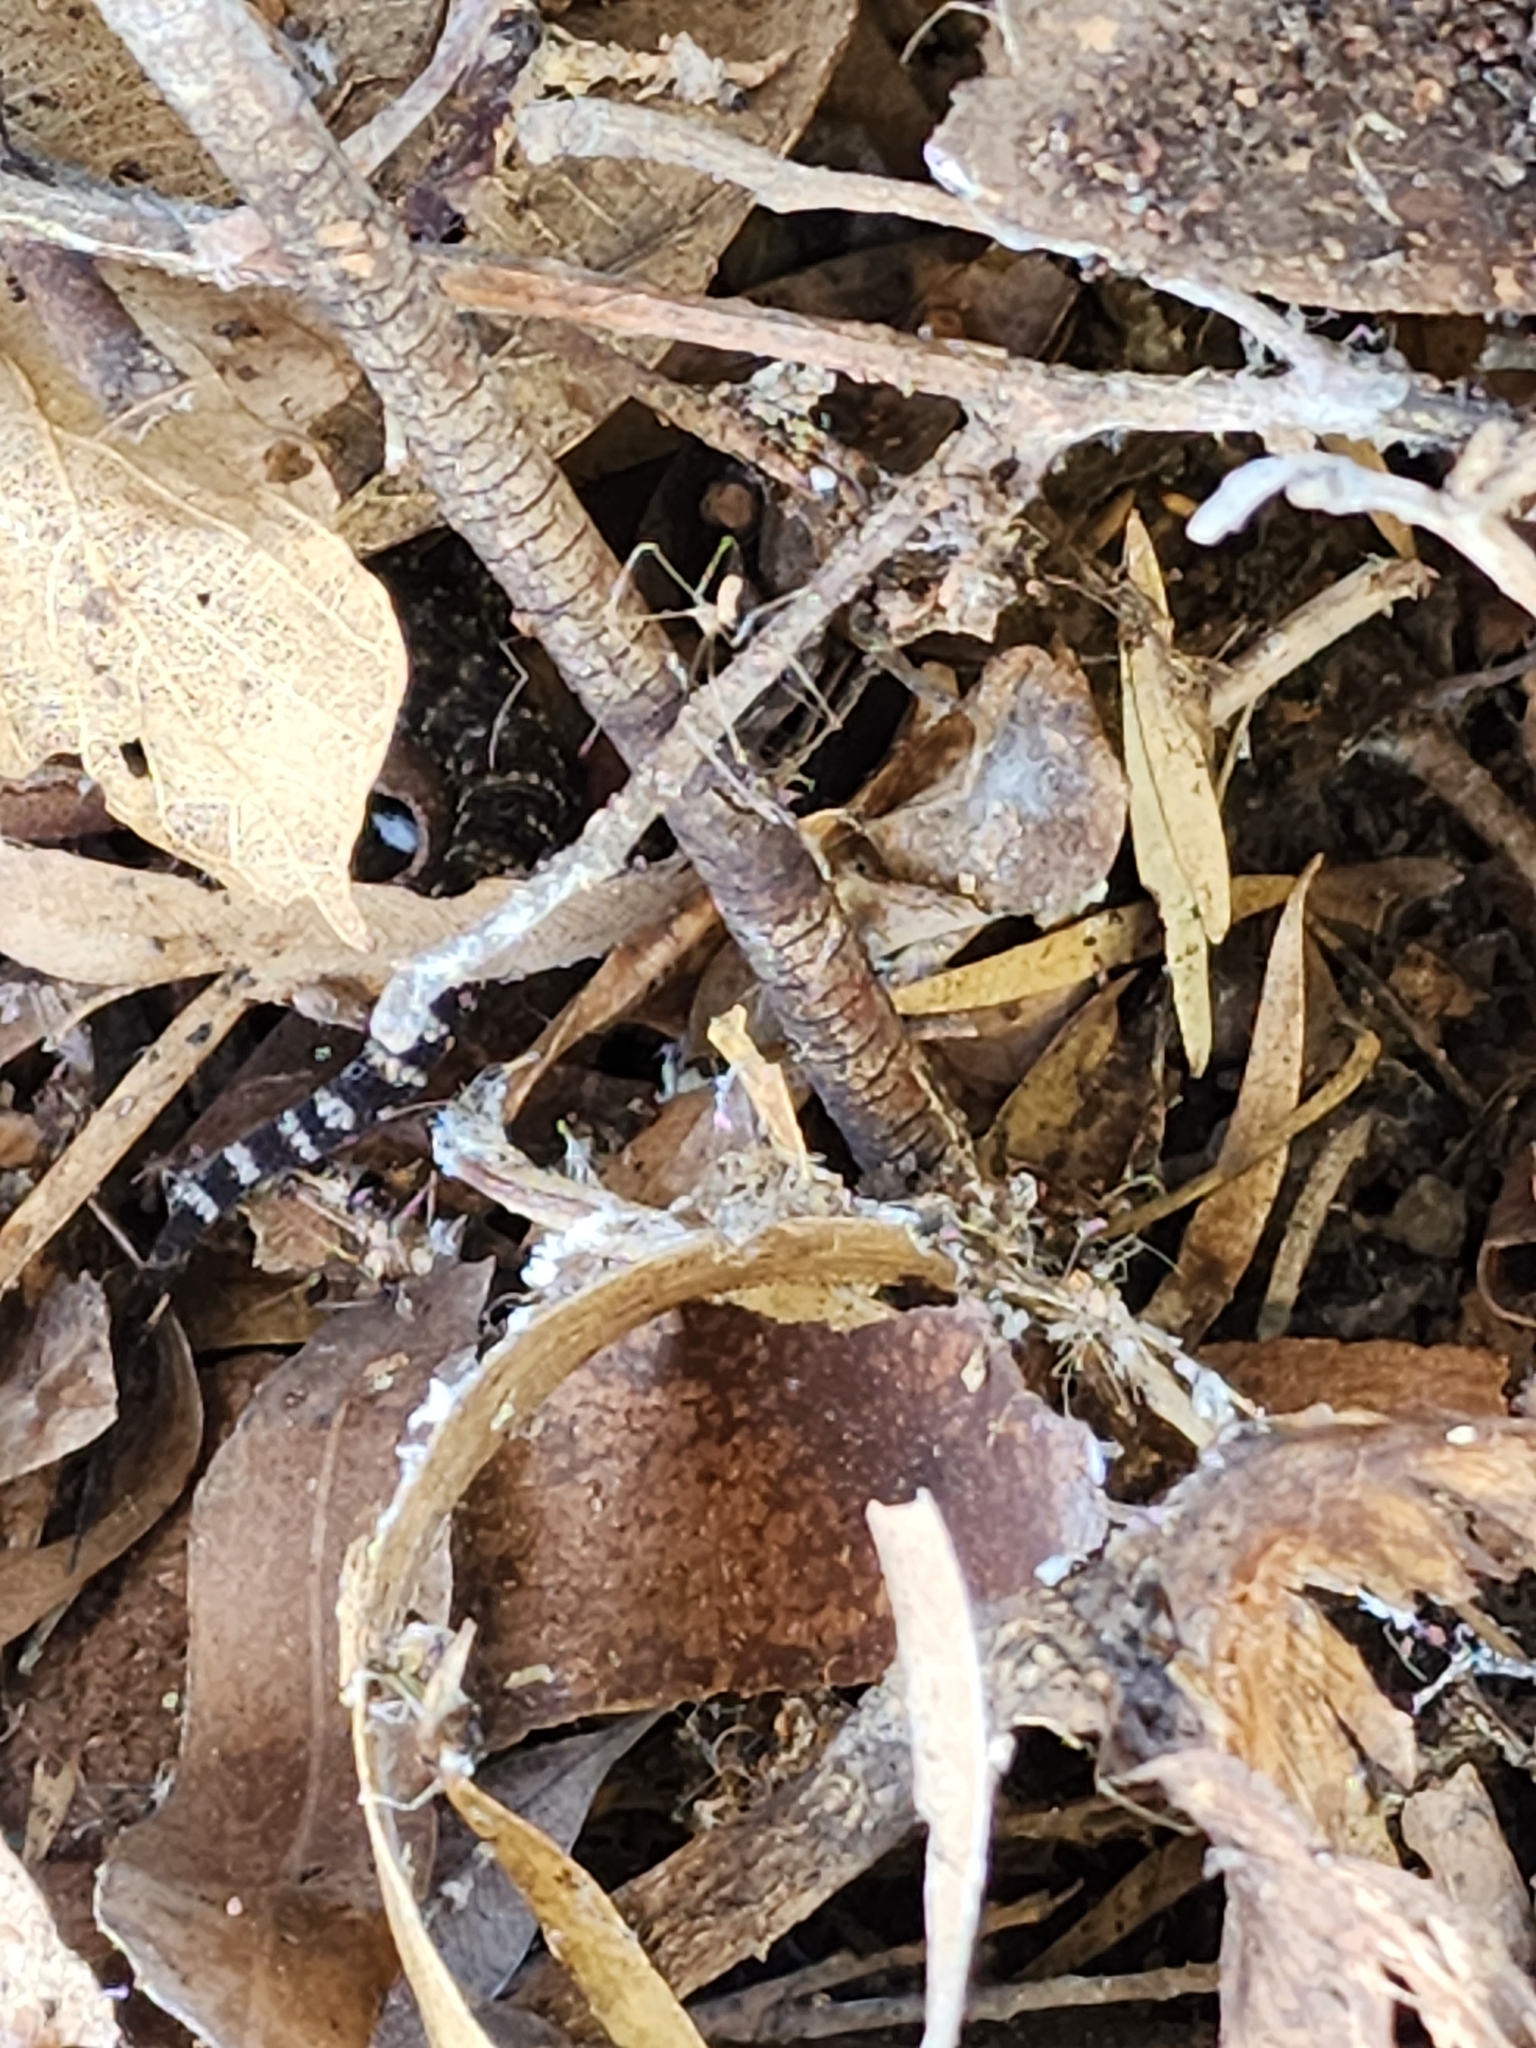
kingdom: Animalia
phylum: Chordata
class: Squamata
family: Gekkonidae
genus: Heteronotia
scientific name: Heteronotia binoei
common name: Bynoe's gecko
